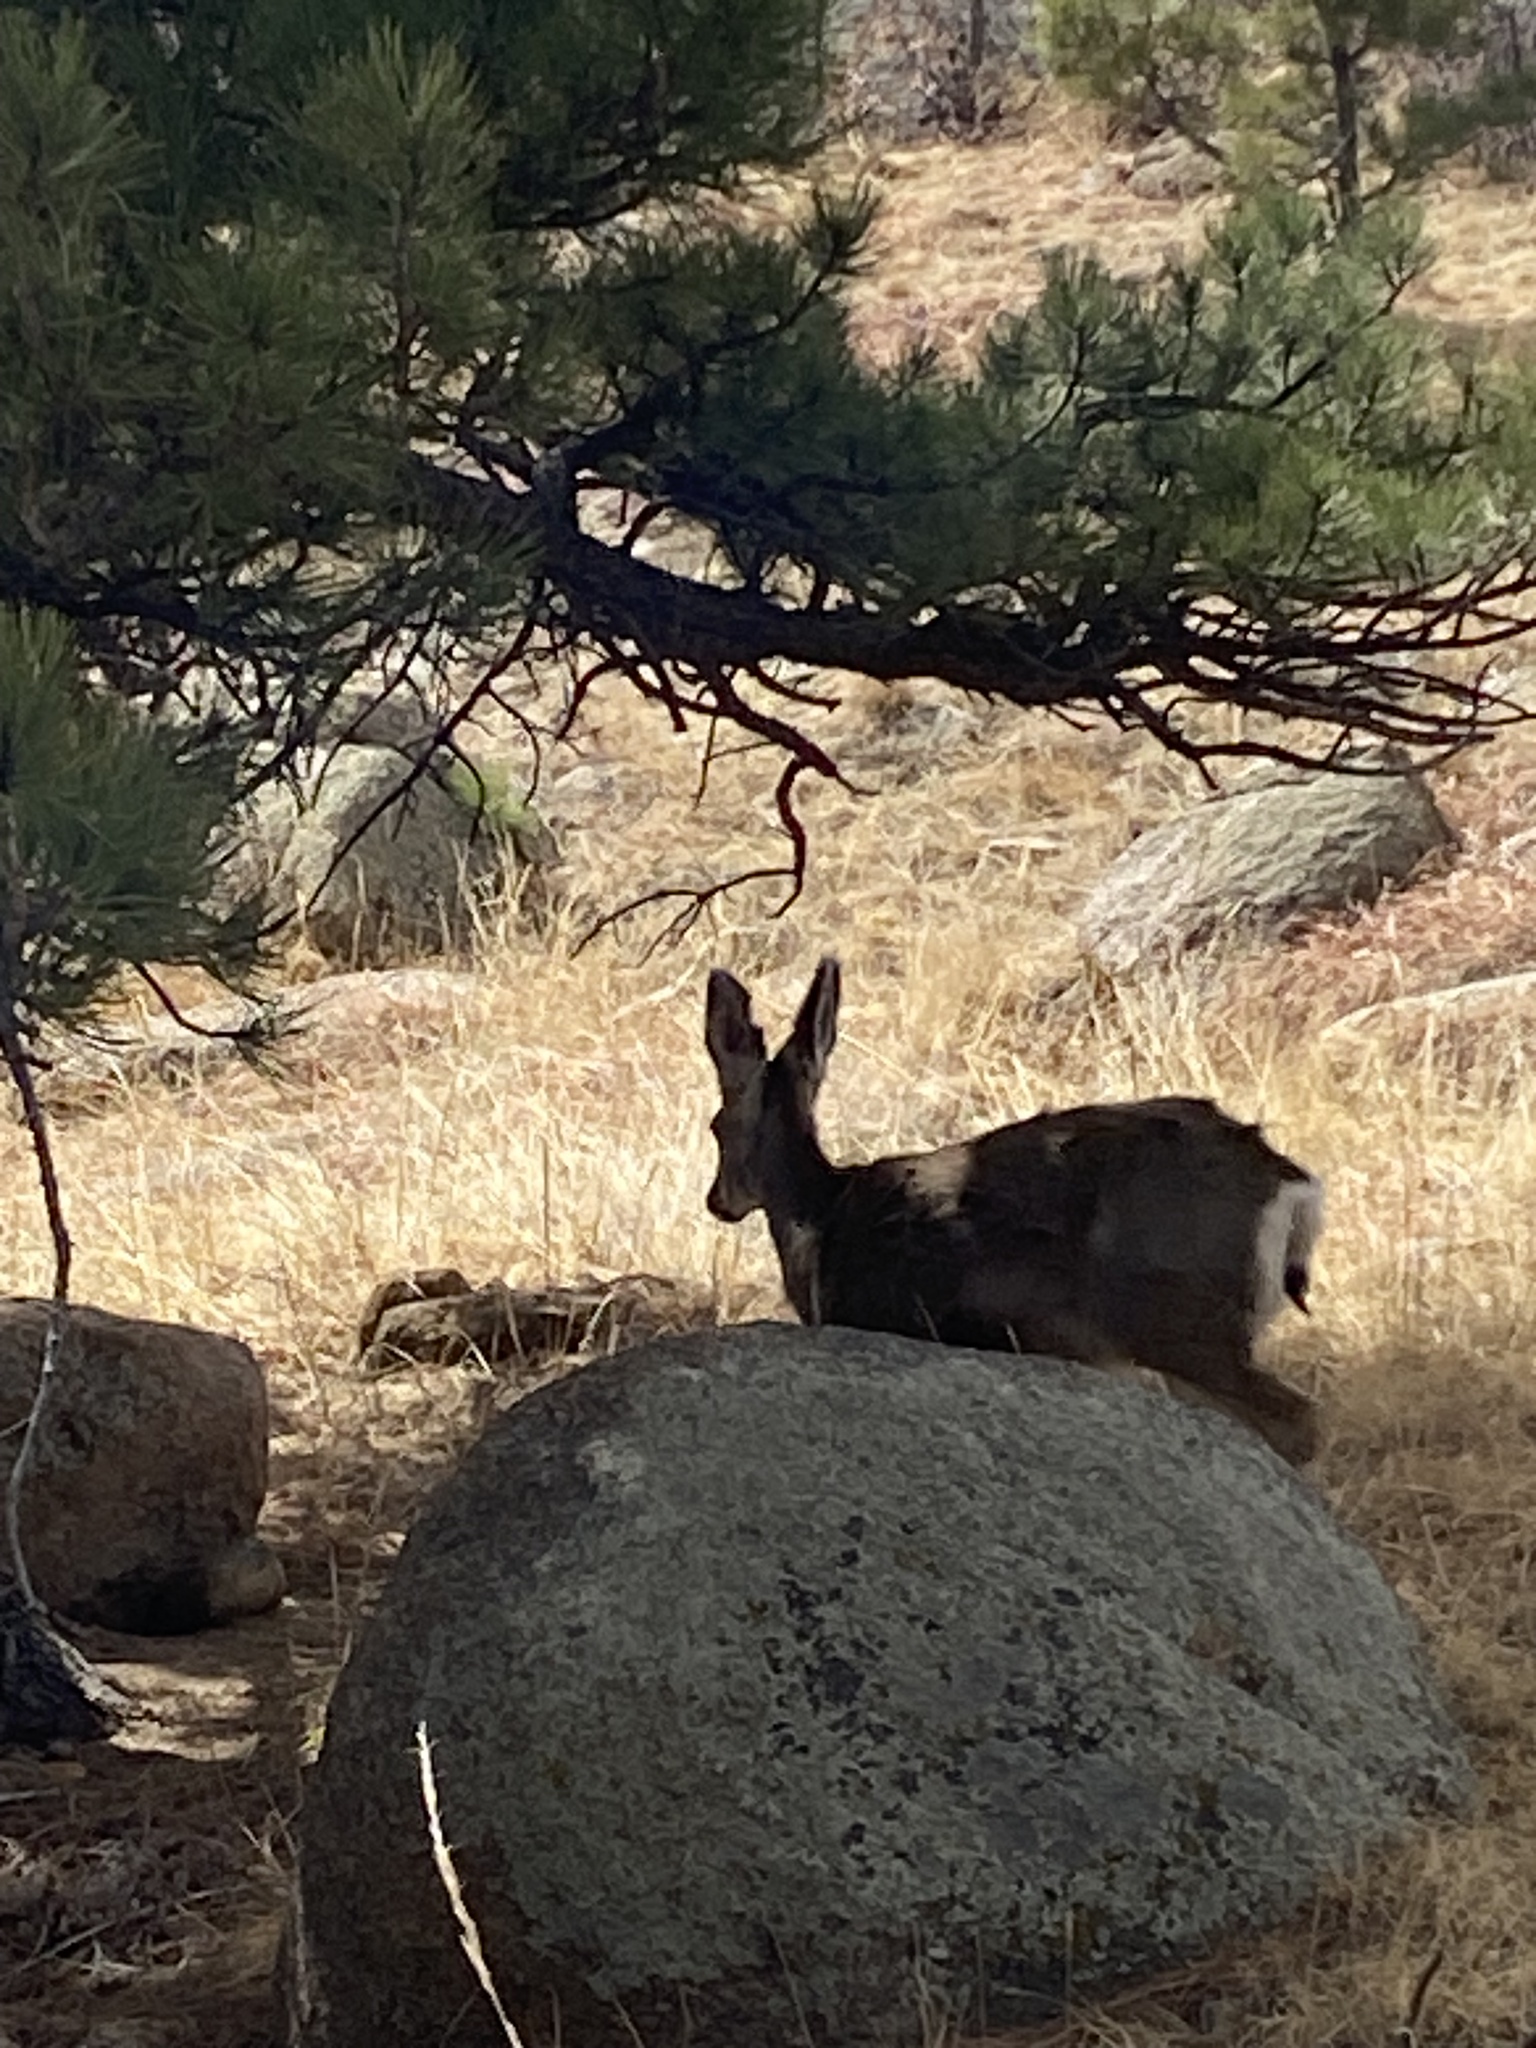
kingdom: Animalia
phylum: Chordata
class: Mammalia
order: Artiodactyla
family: Cervidae
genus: Odocoileus
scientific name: Odocoileus hemionus
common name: Mule deer
